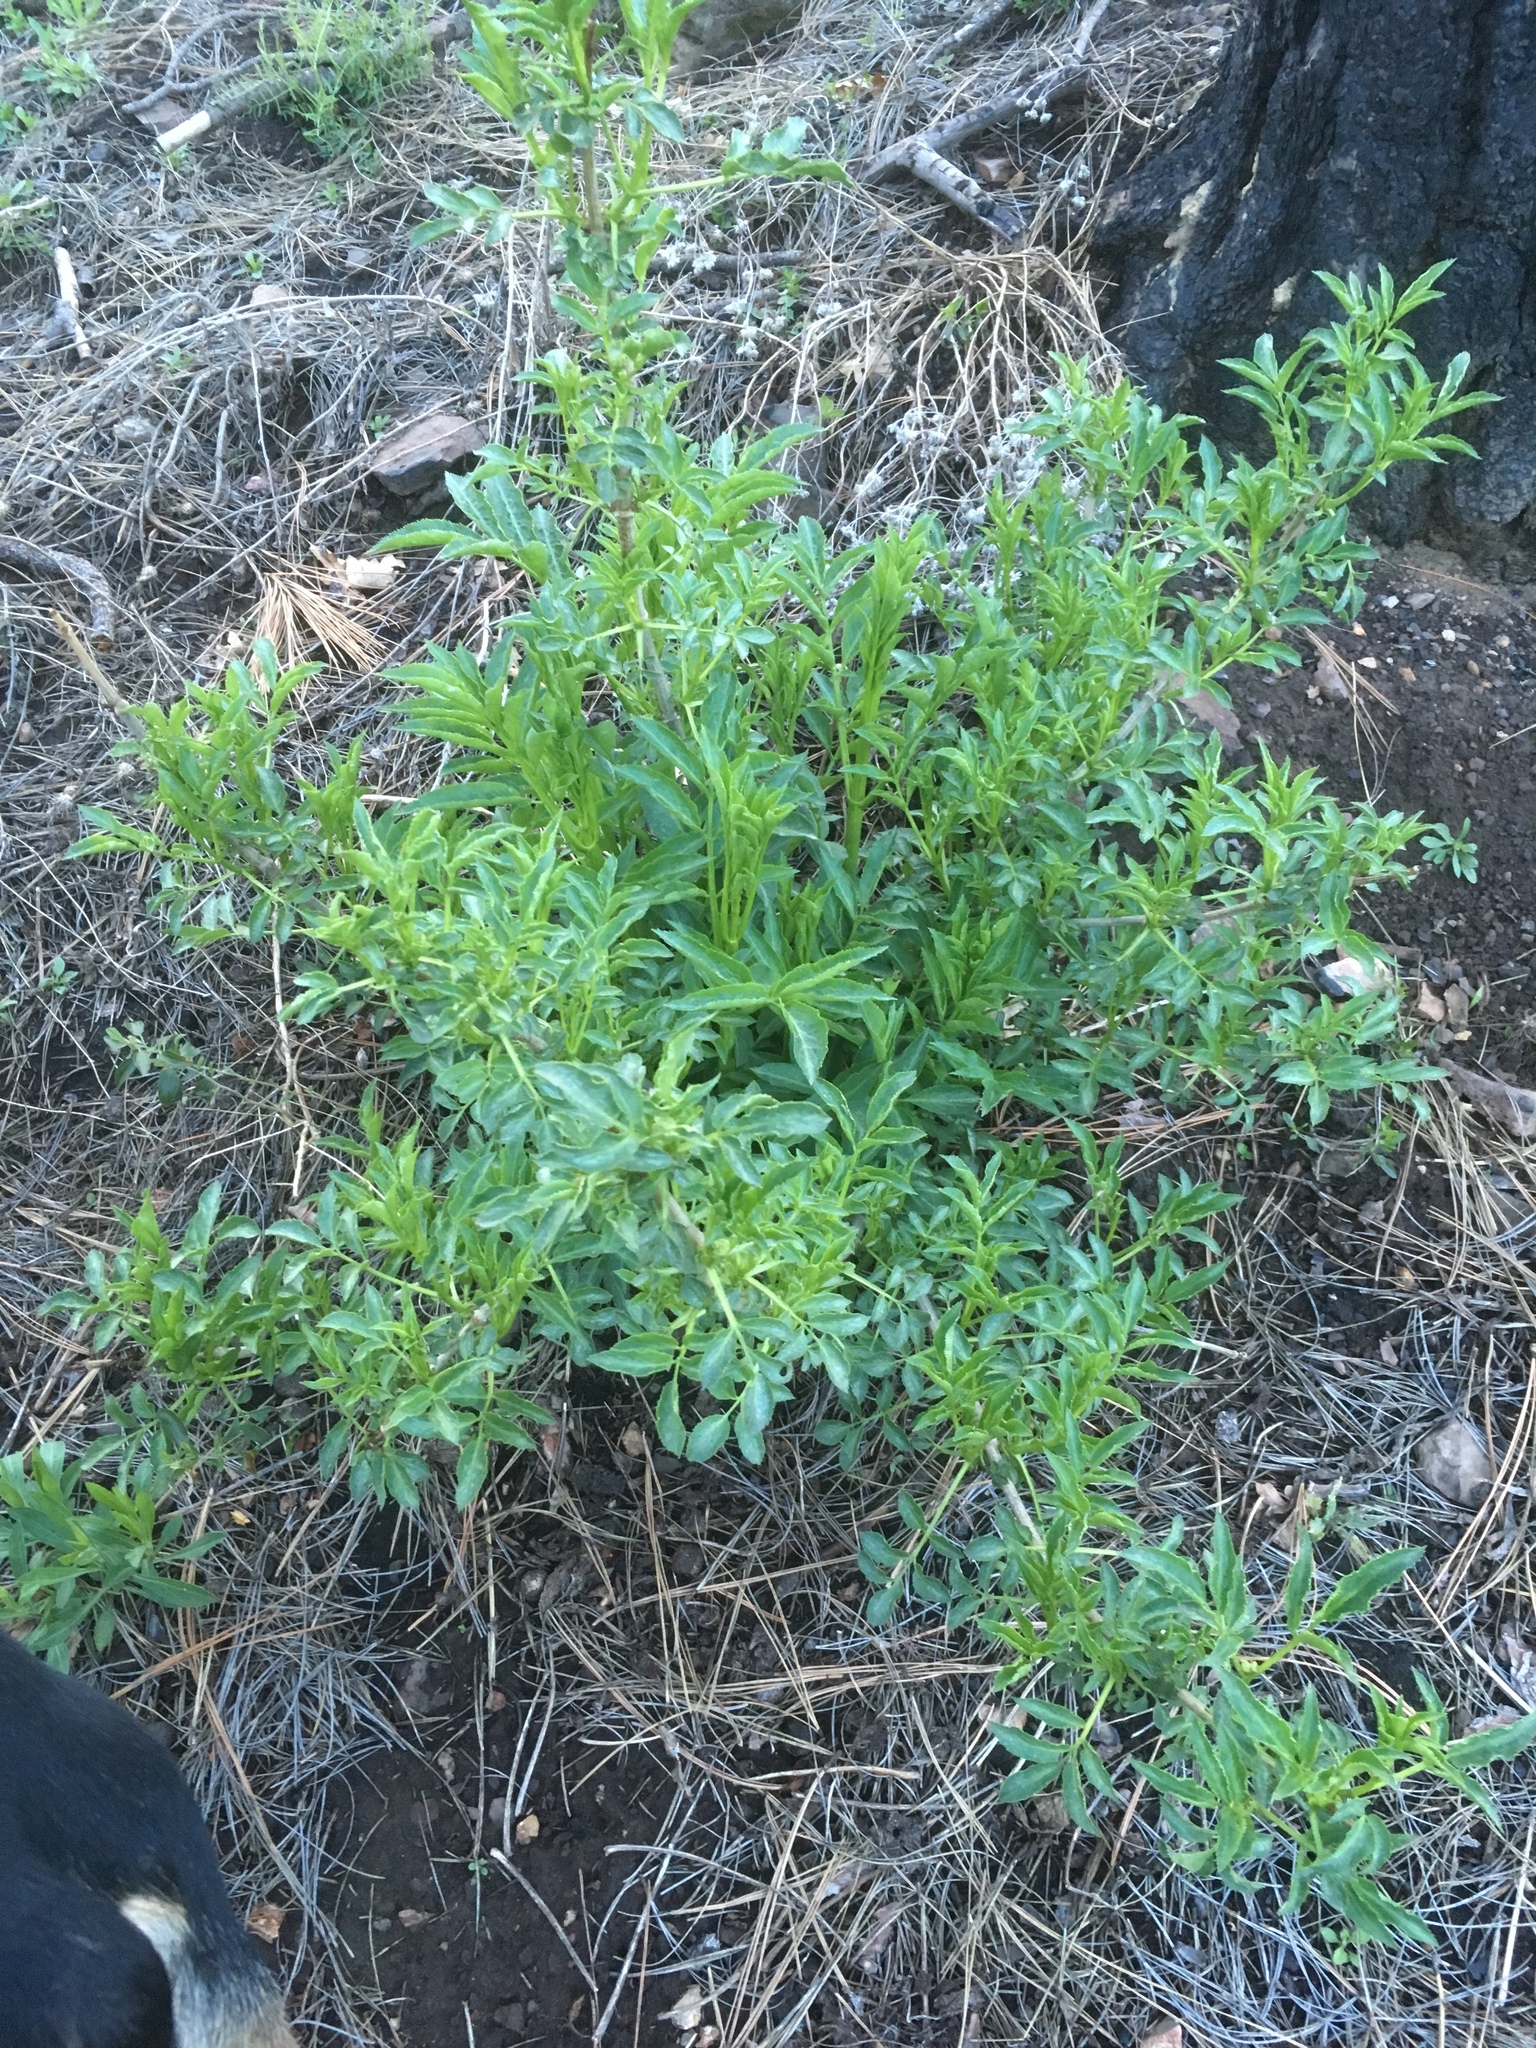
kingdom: Plantae
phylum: Tracheophyta
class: Magnoliopsida
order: Dipsacales
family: Viburnaceae
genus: Sambucus
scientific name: Sambucus cerulea
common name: Blue elder
